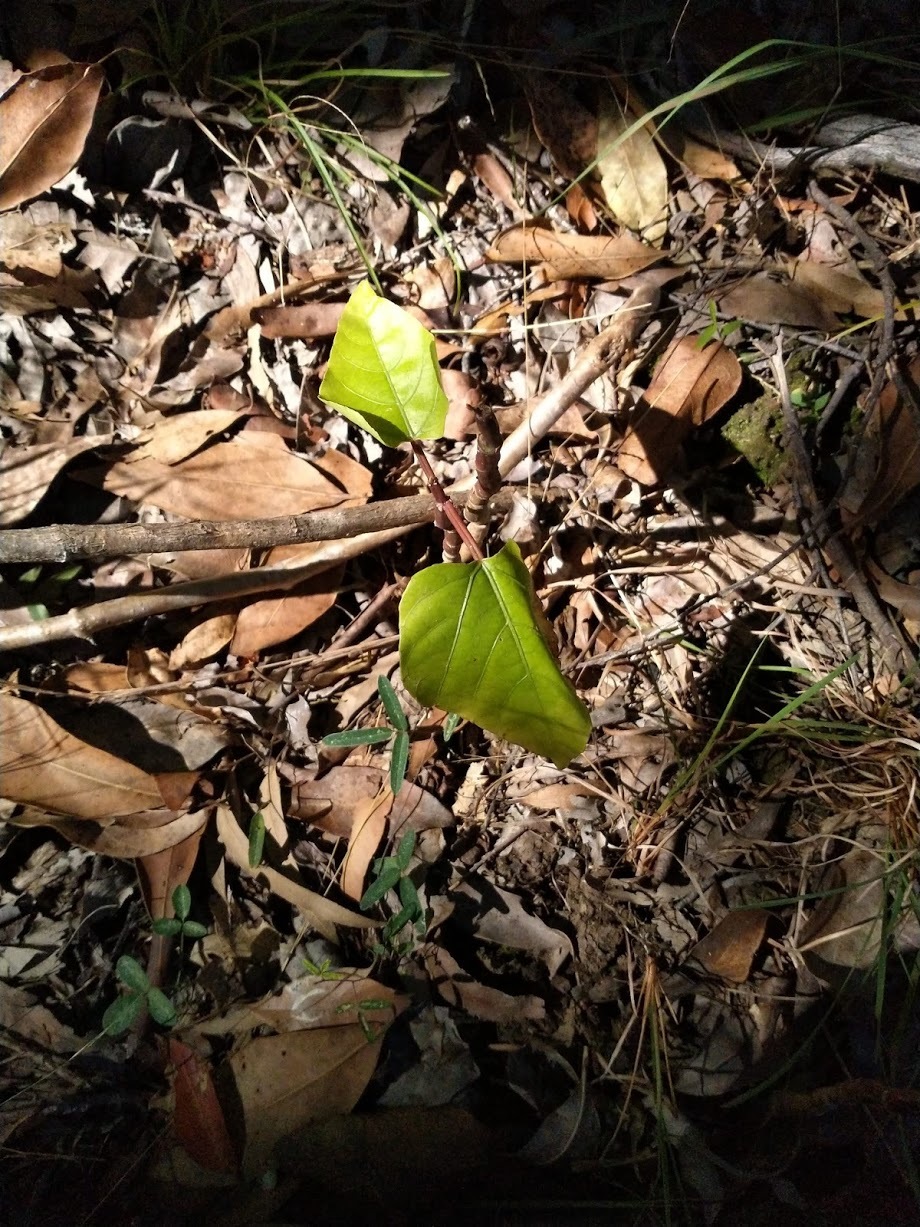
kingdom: Plantae
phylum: Tracheophyta
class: Magnoliopsida
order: Lamiales
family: Bignoniaceae
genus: Amphilophium
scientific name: Amphilophium crucigerum
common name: Monkey comb
